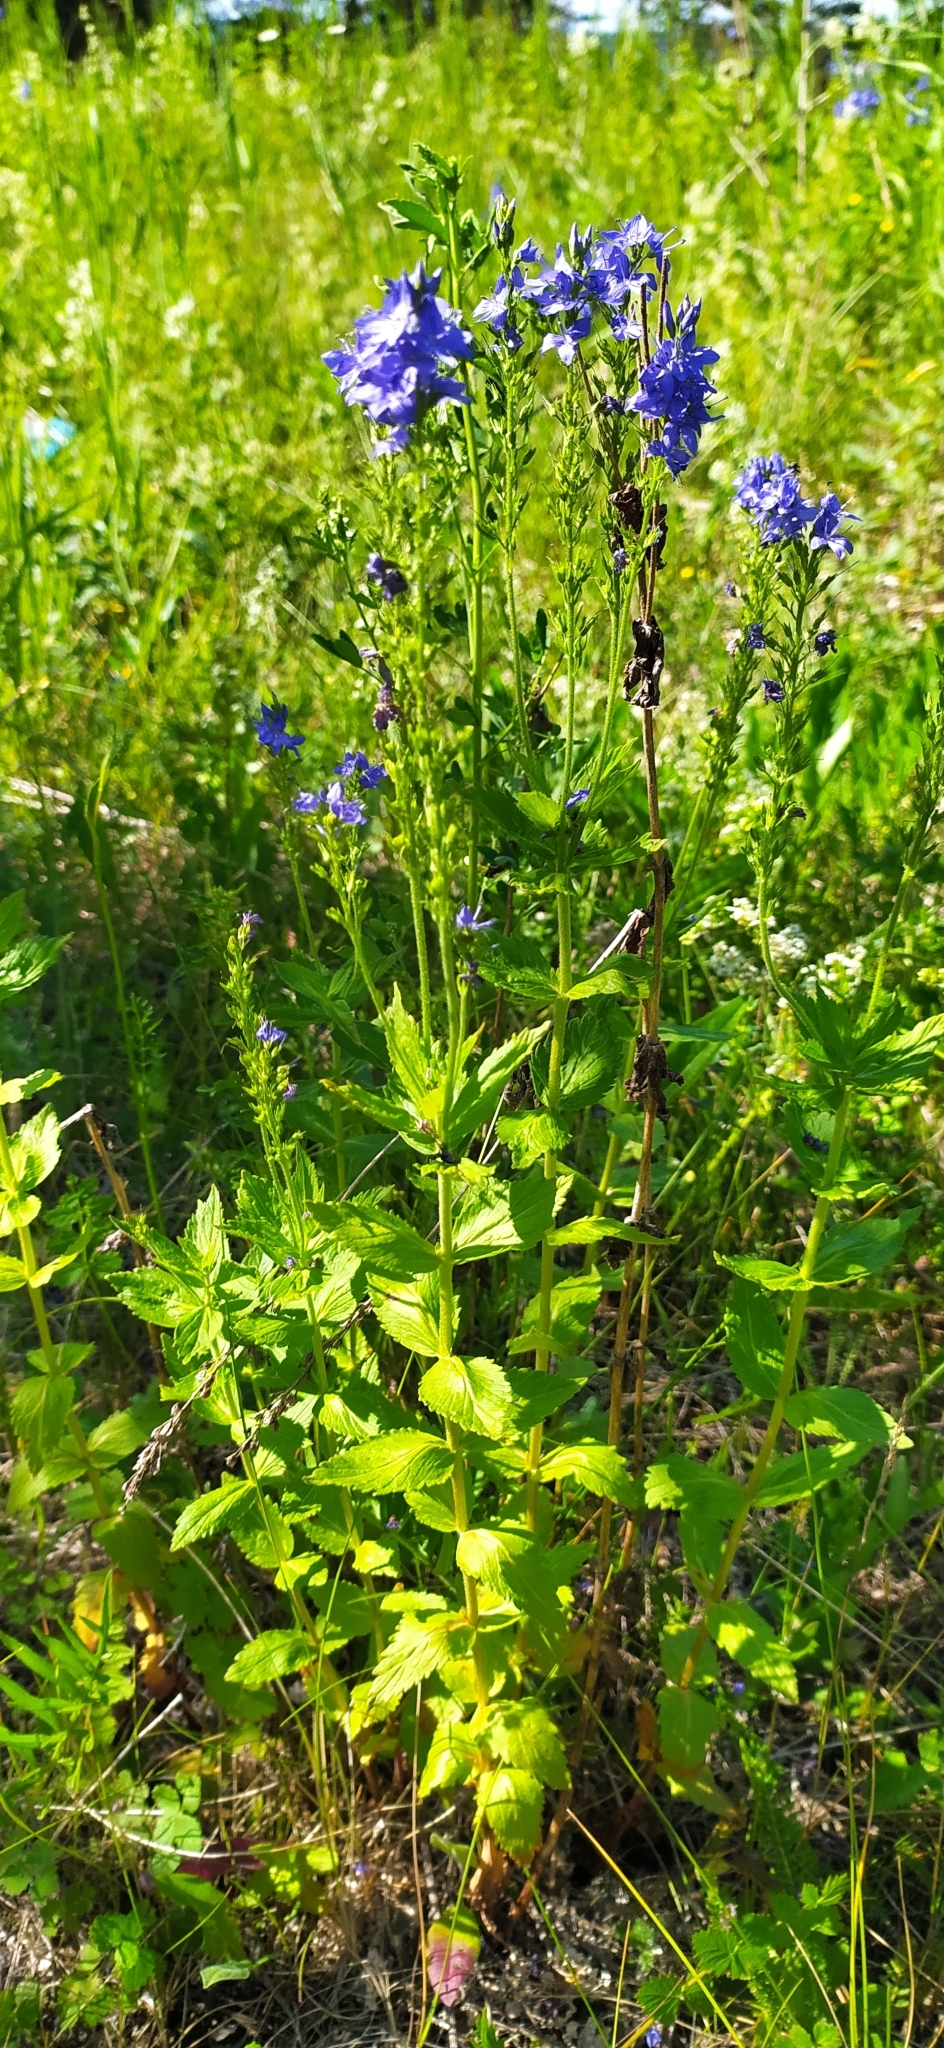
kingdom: Plantae
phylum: Tracheophyta
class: Magnoliopsida
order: Lamiales
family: Plantaginaceae
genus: Veronica
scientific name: Veronica teucrium
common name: Large speedwell
